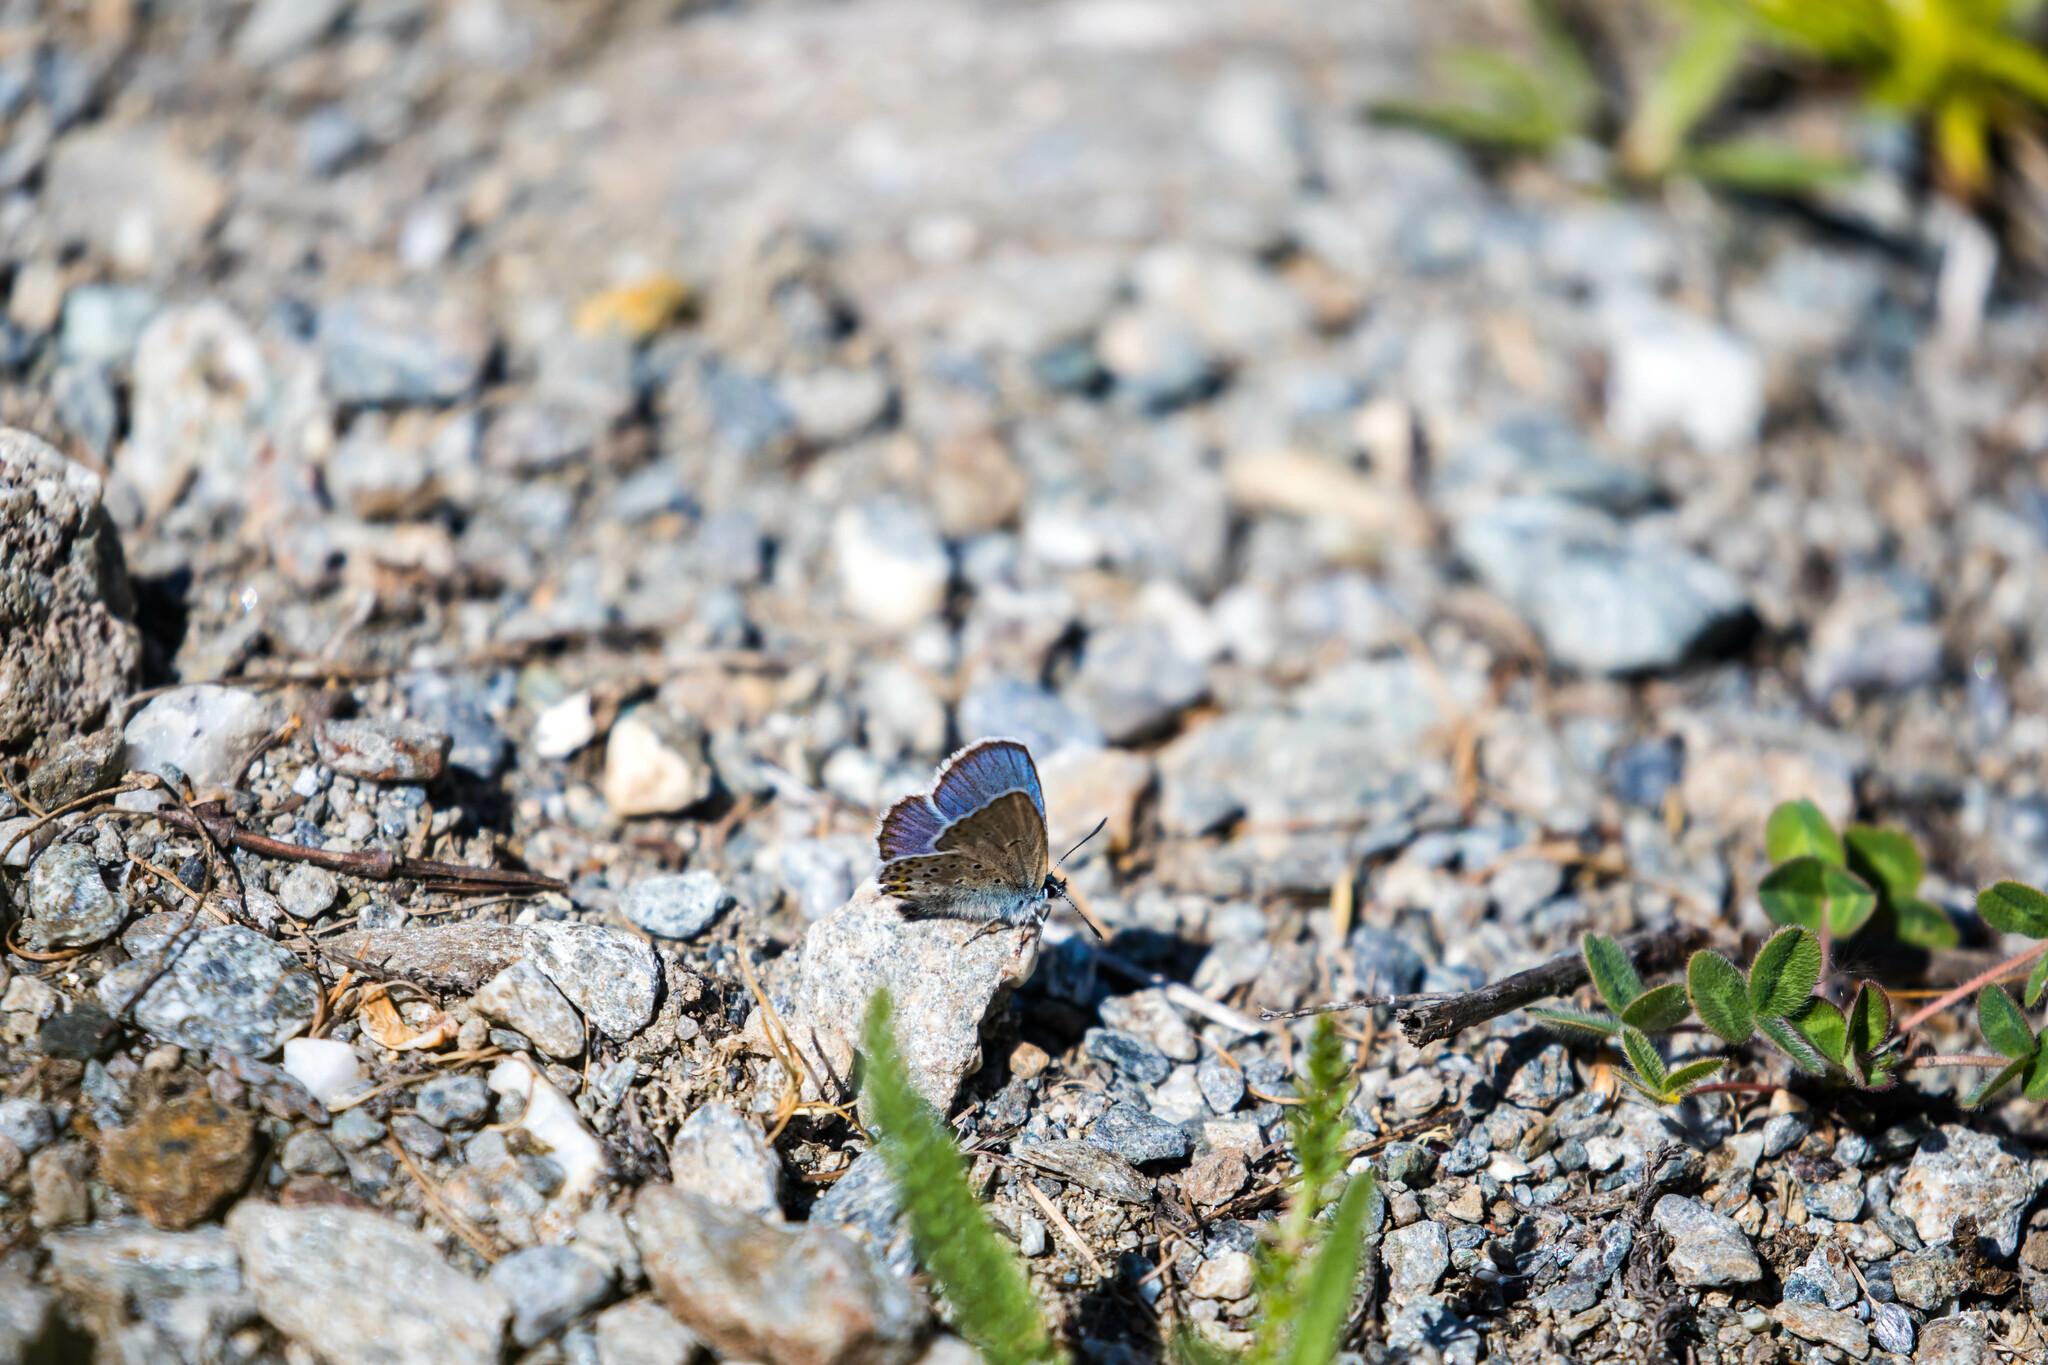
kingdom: Animalia
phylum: Arthropoda
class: Insecta
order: Lepidoptera
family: Lycaenidae
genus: Lycaeides
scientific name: Lycaeides idas
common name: Northern blue
